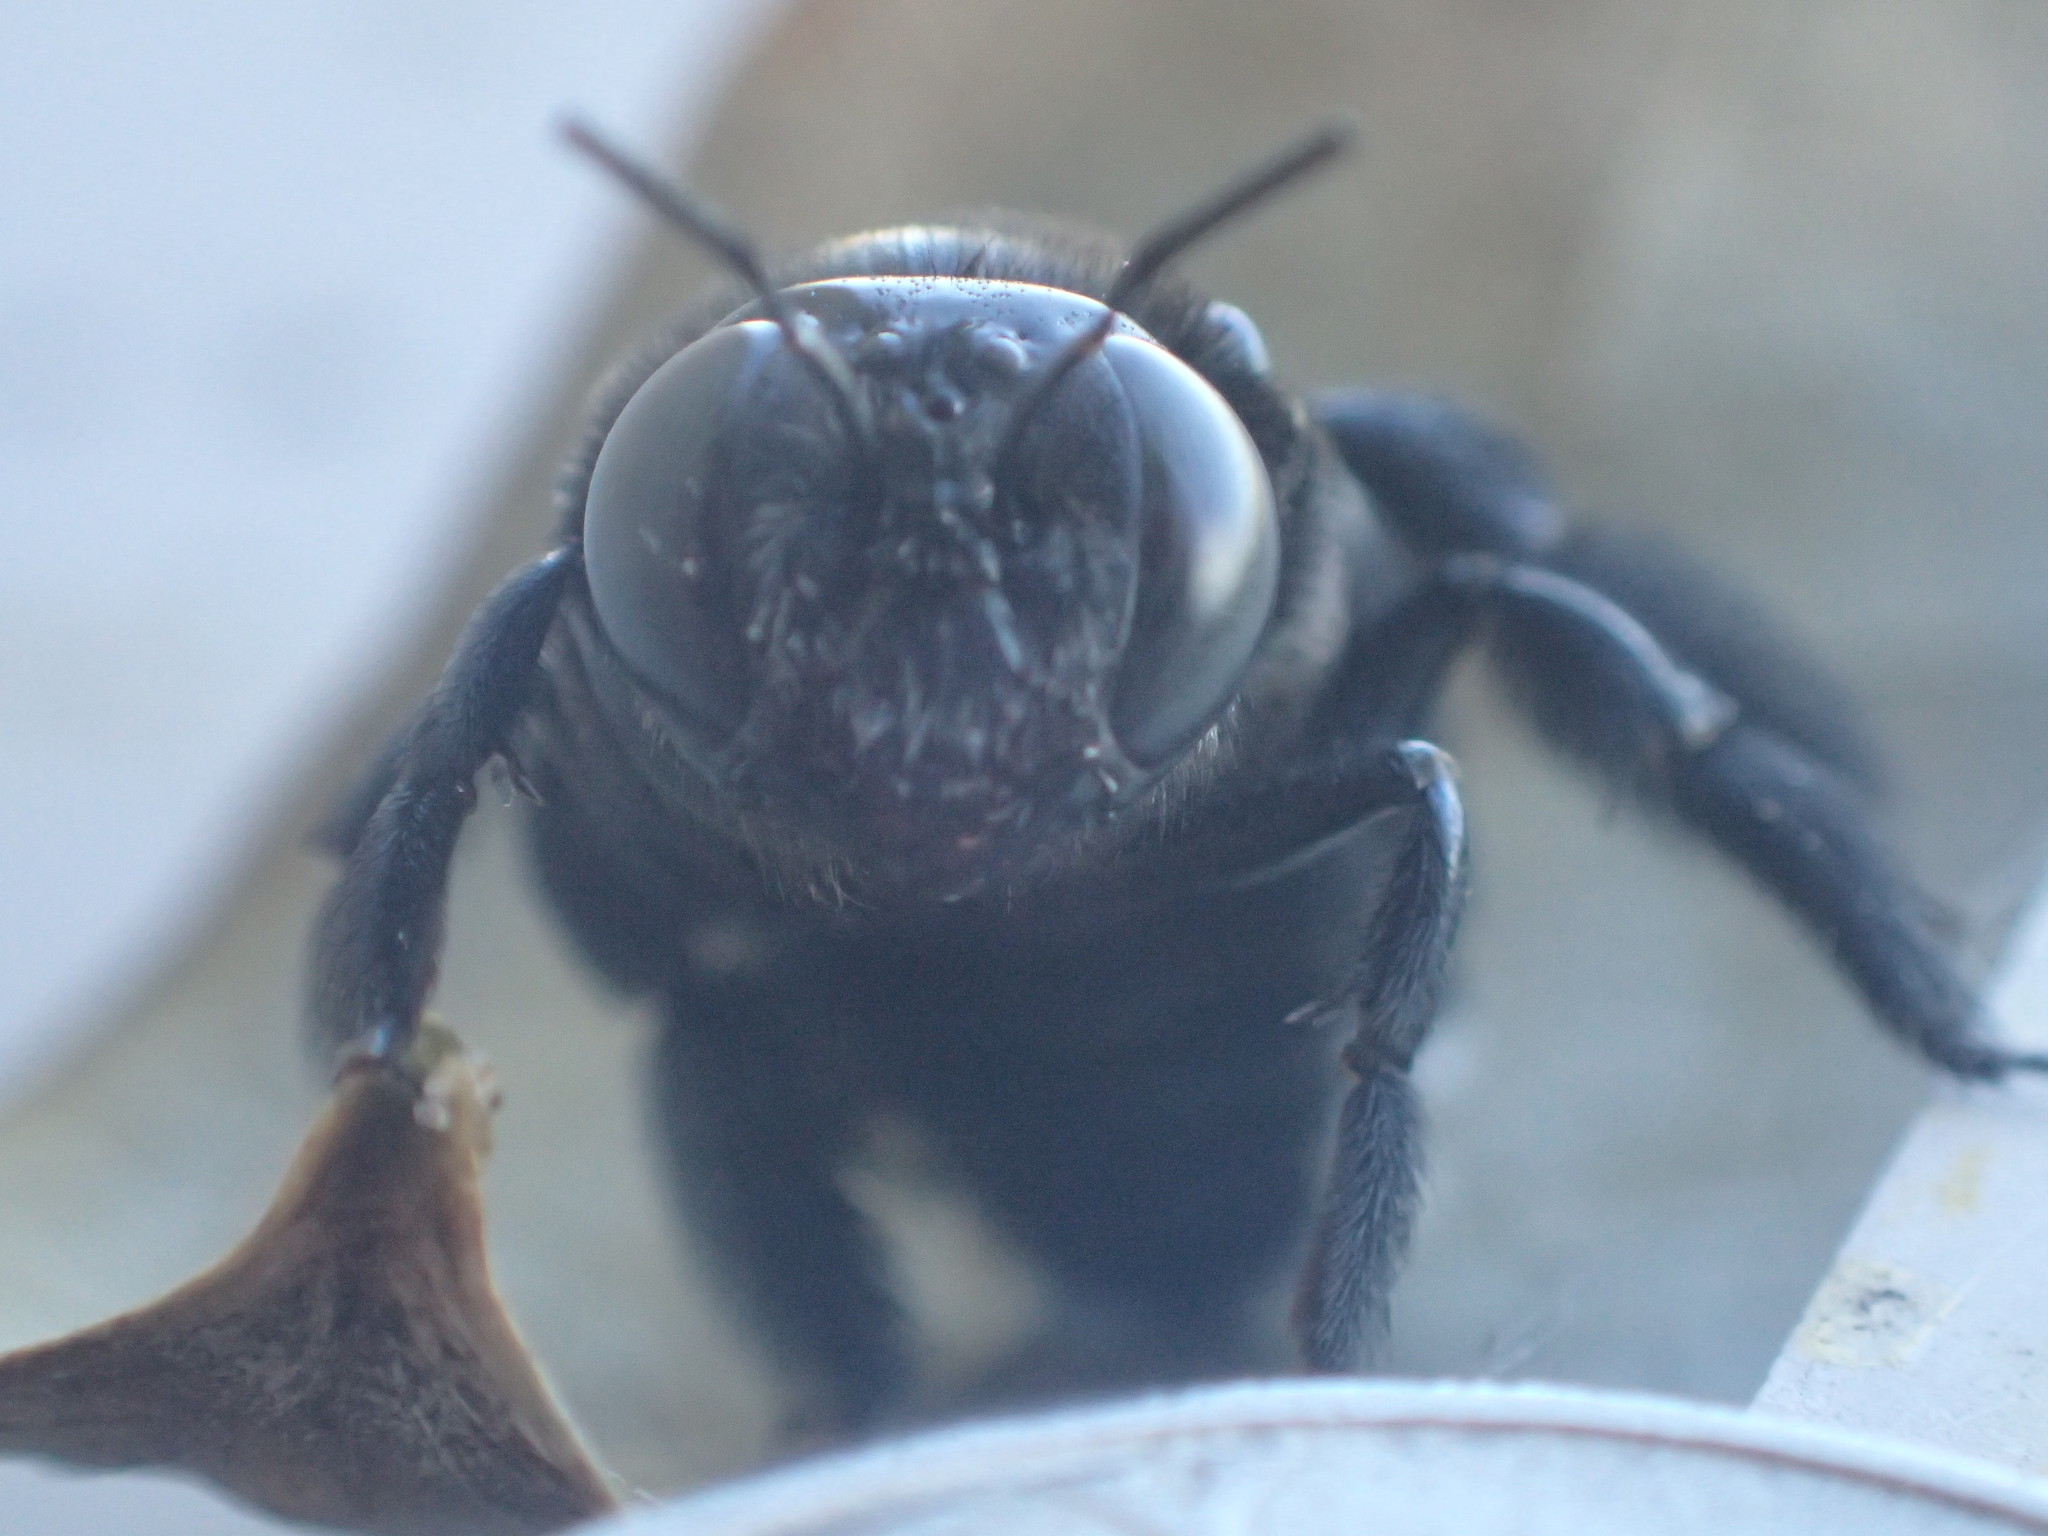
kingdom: Animalia
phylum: Arthropoda
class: Insecta
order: Hymenoptera
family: Apidae
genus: Xylocopa
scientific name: Xylocopa micans
